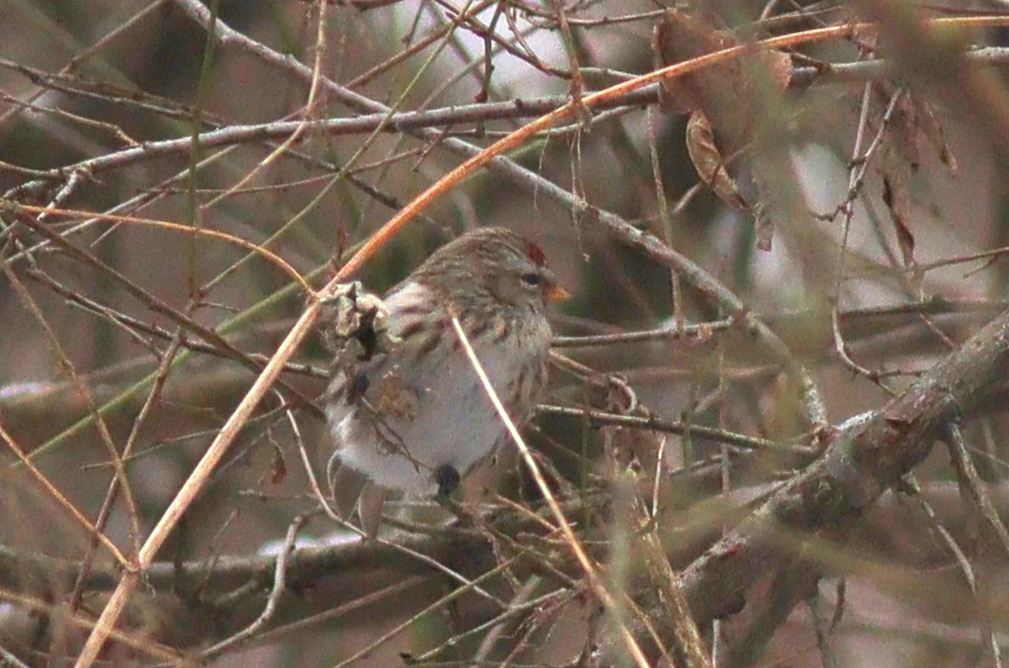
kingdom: Animalia
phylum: Chordata
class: Aves
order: Passeriformes
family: Fringillidae
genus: Acanthis
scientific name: Acanthis flammea
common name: Common redpoll
